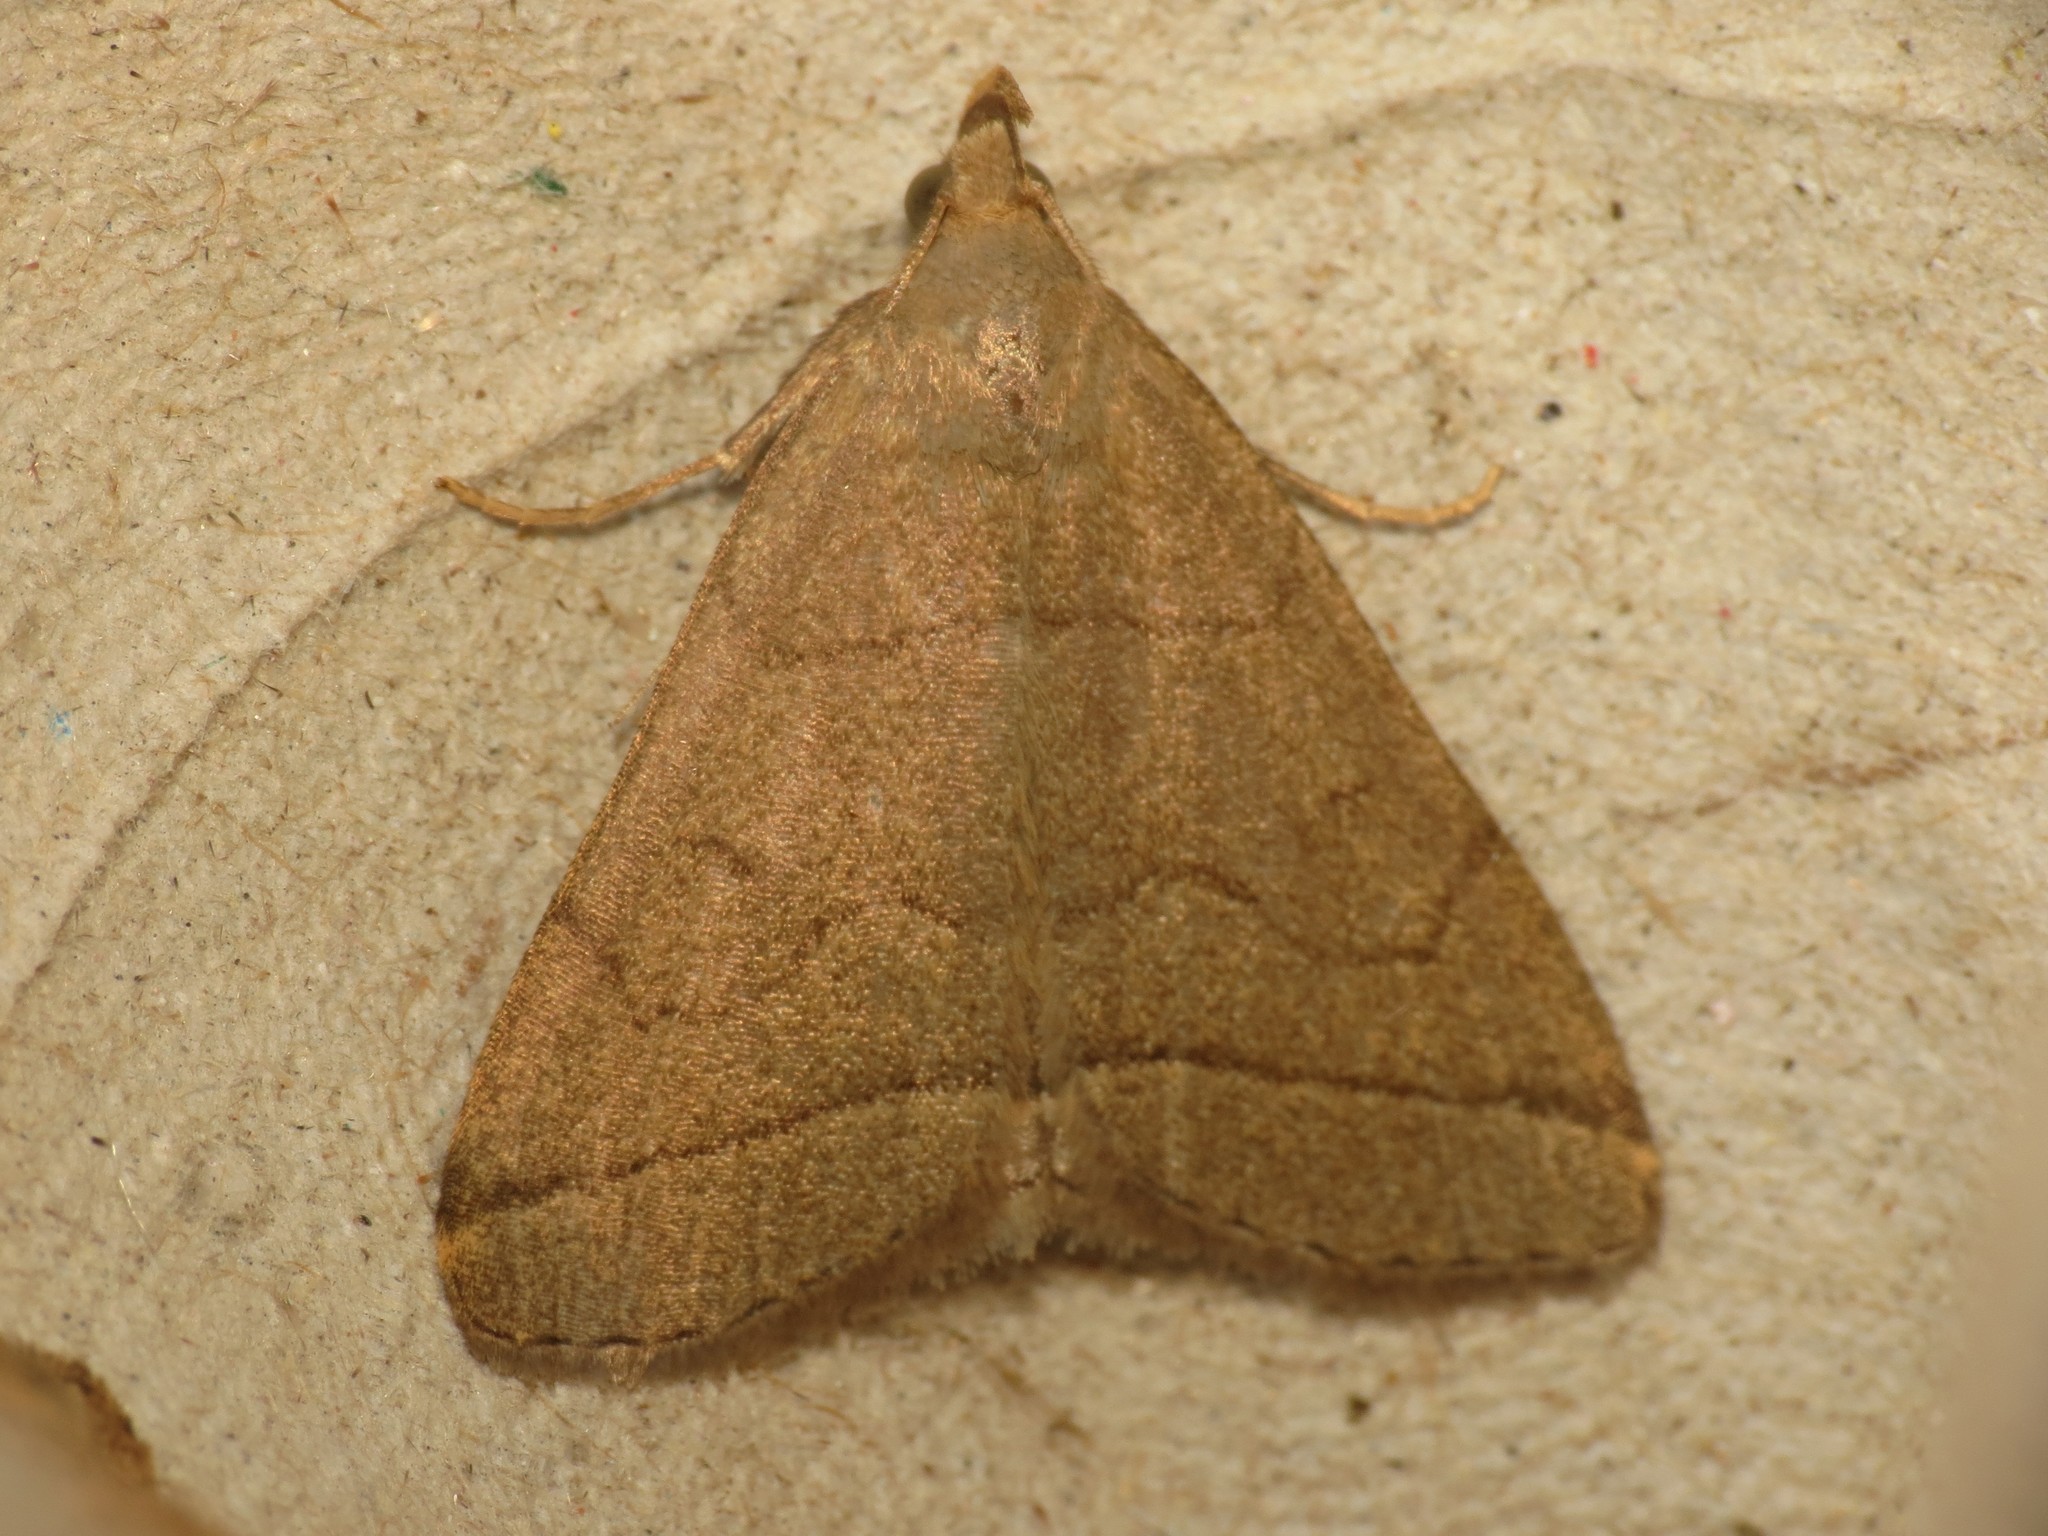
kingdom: Animalia
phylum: Arthropoda
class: Insecta
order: Lepidoptera
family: Erebidae
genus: Herminia
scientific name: Herminia tarsipennalis
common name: Fan-foot
